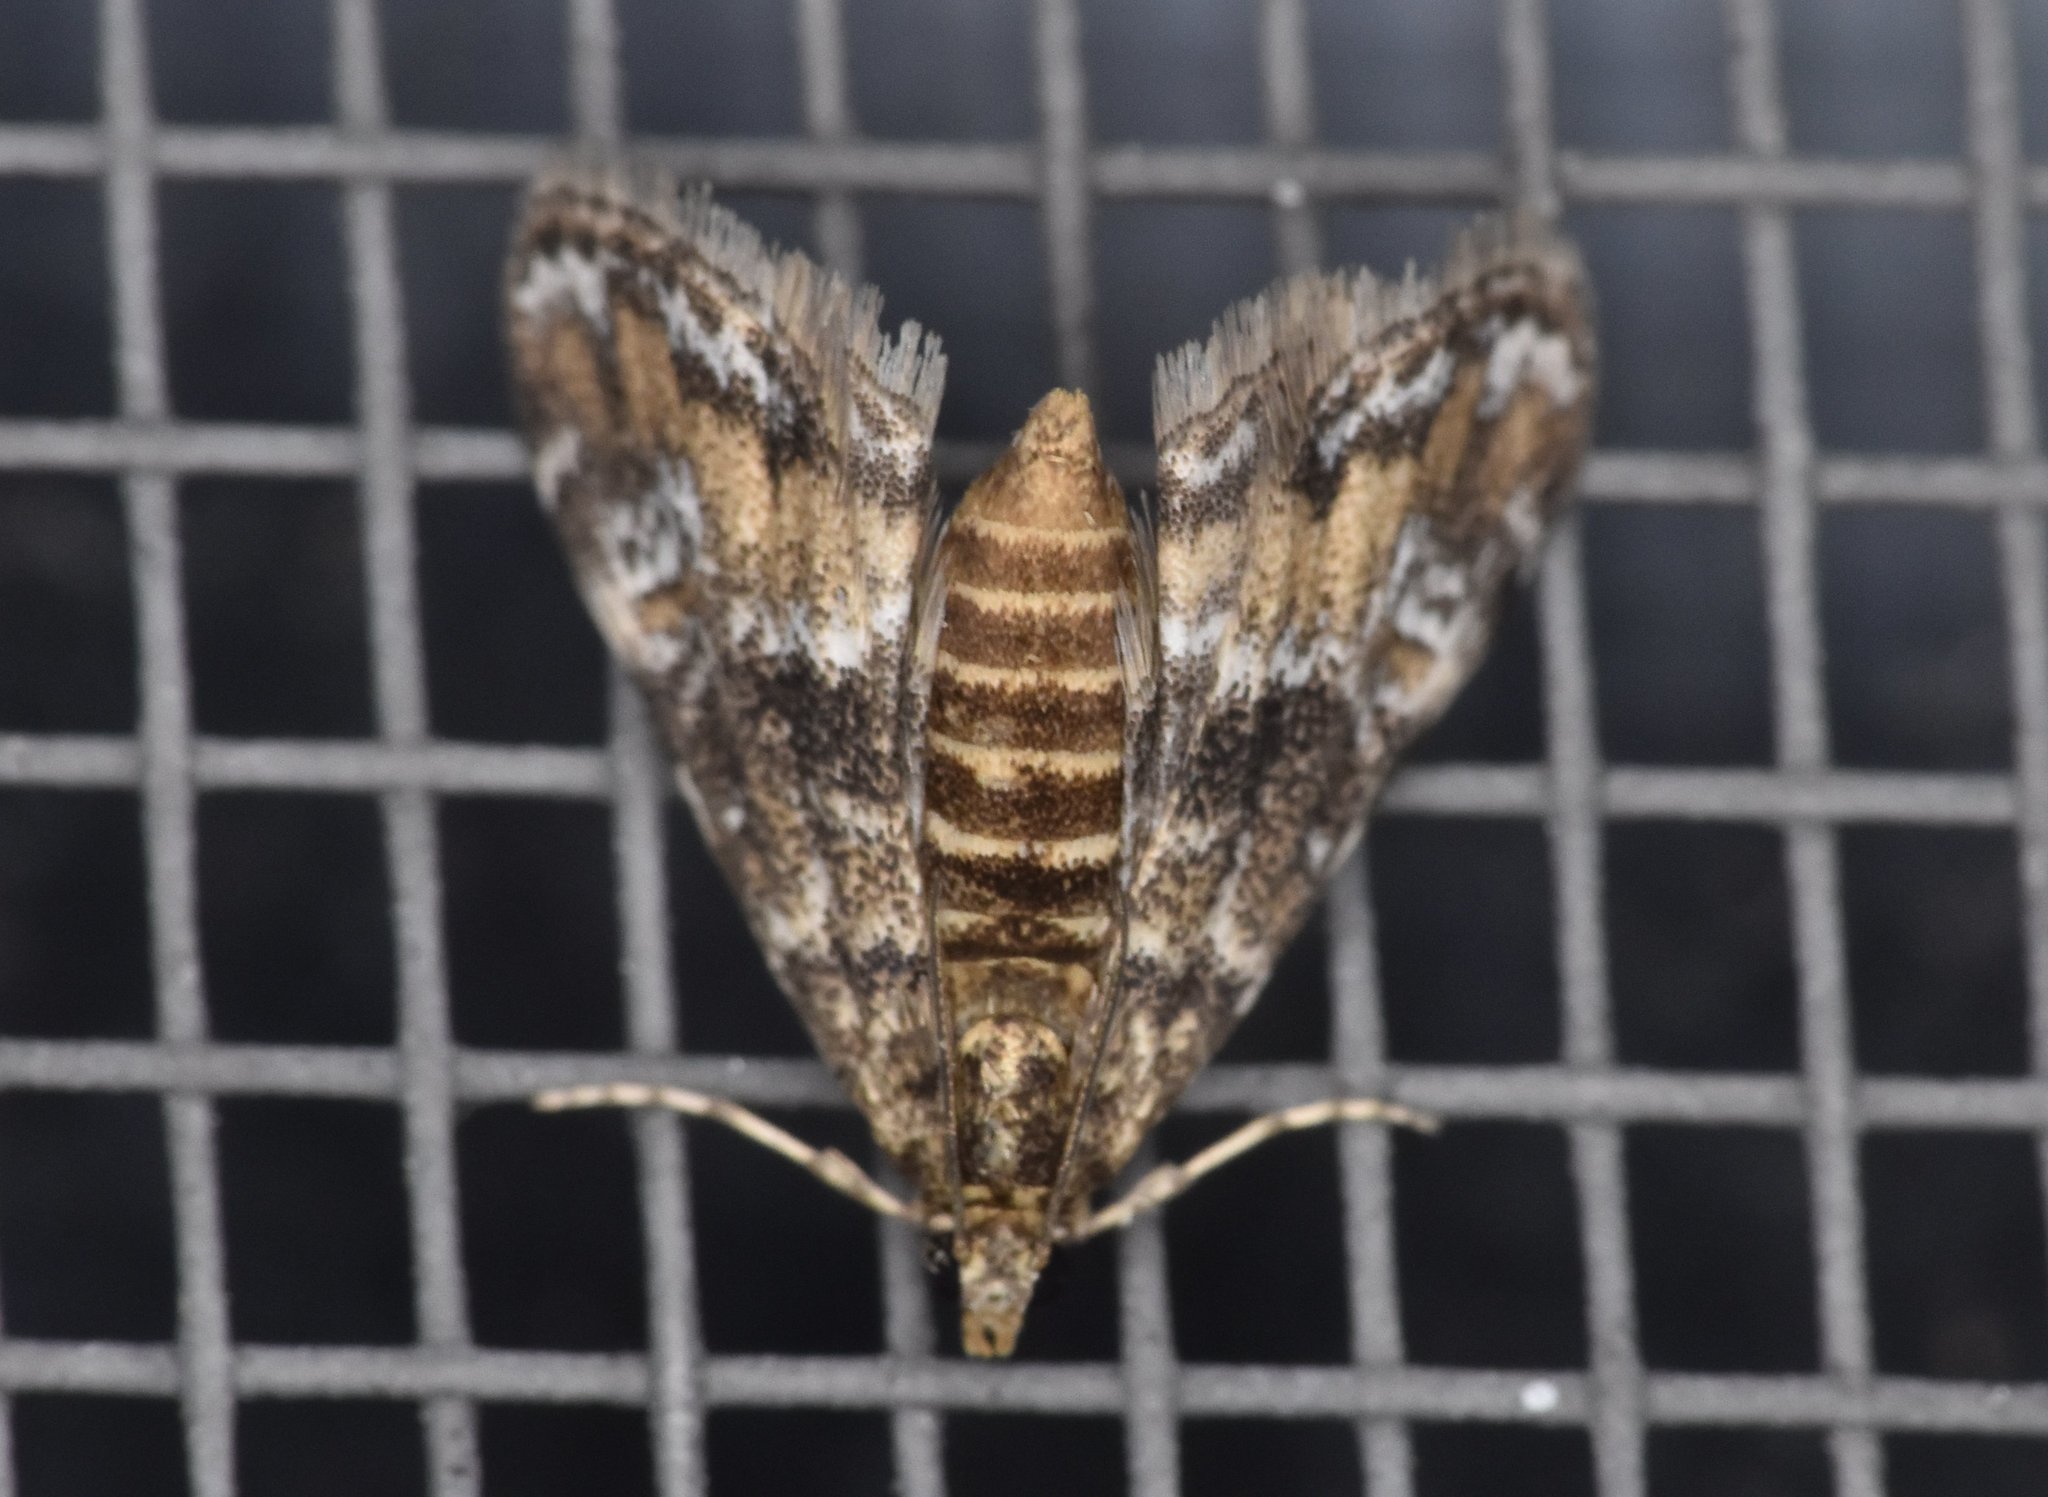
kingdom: Animalia
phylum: Arthropoda
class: Insecta
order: Lepidoptera
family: Crambidae
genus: Elophila
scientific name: Elophila obliteralis
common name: Waterlily leafcutter moth
